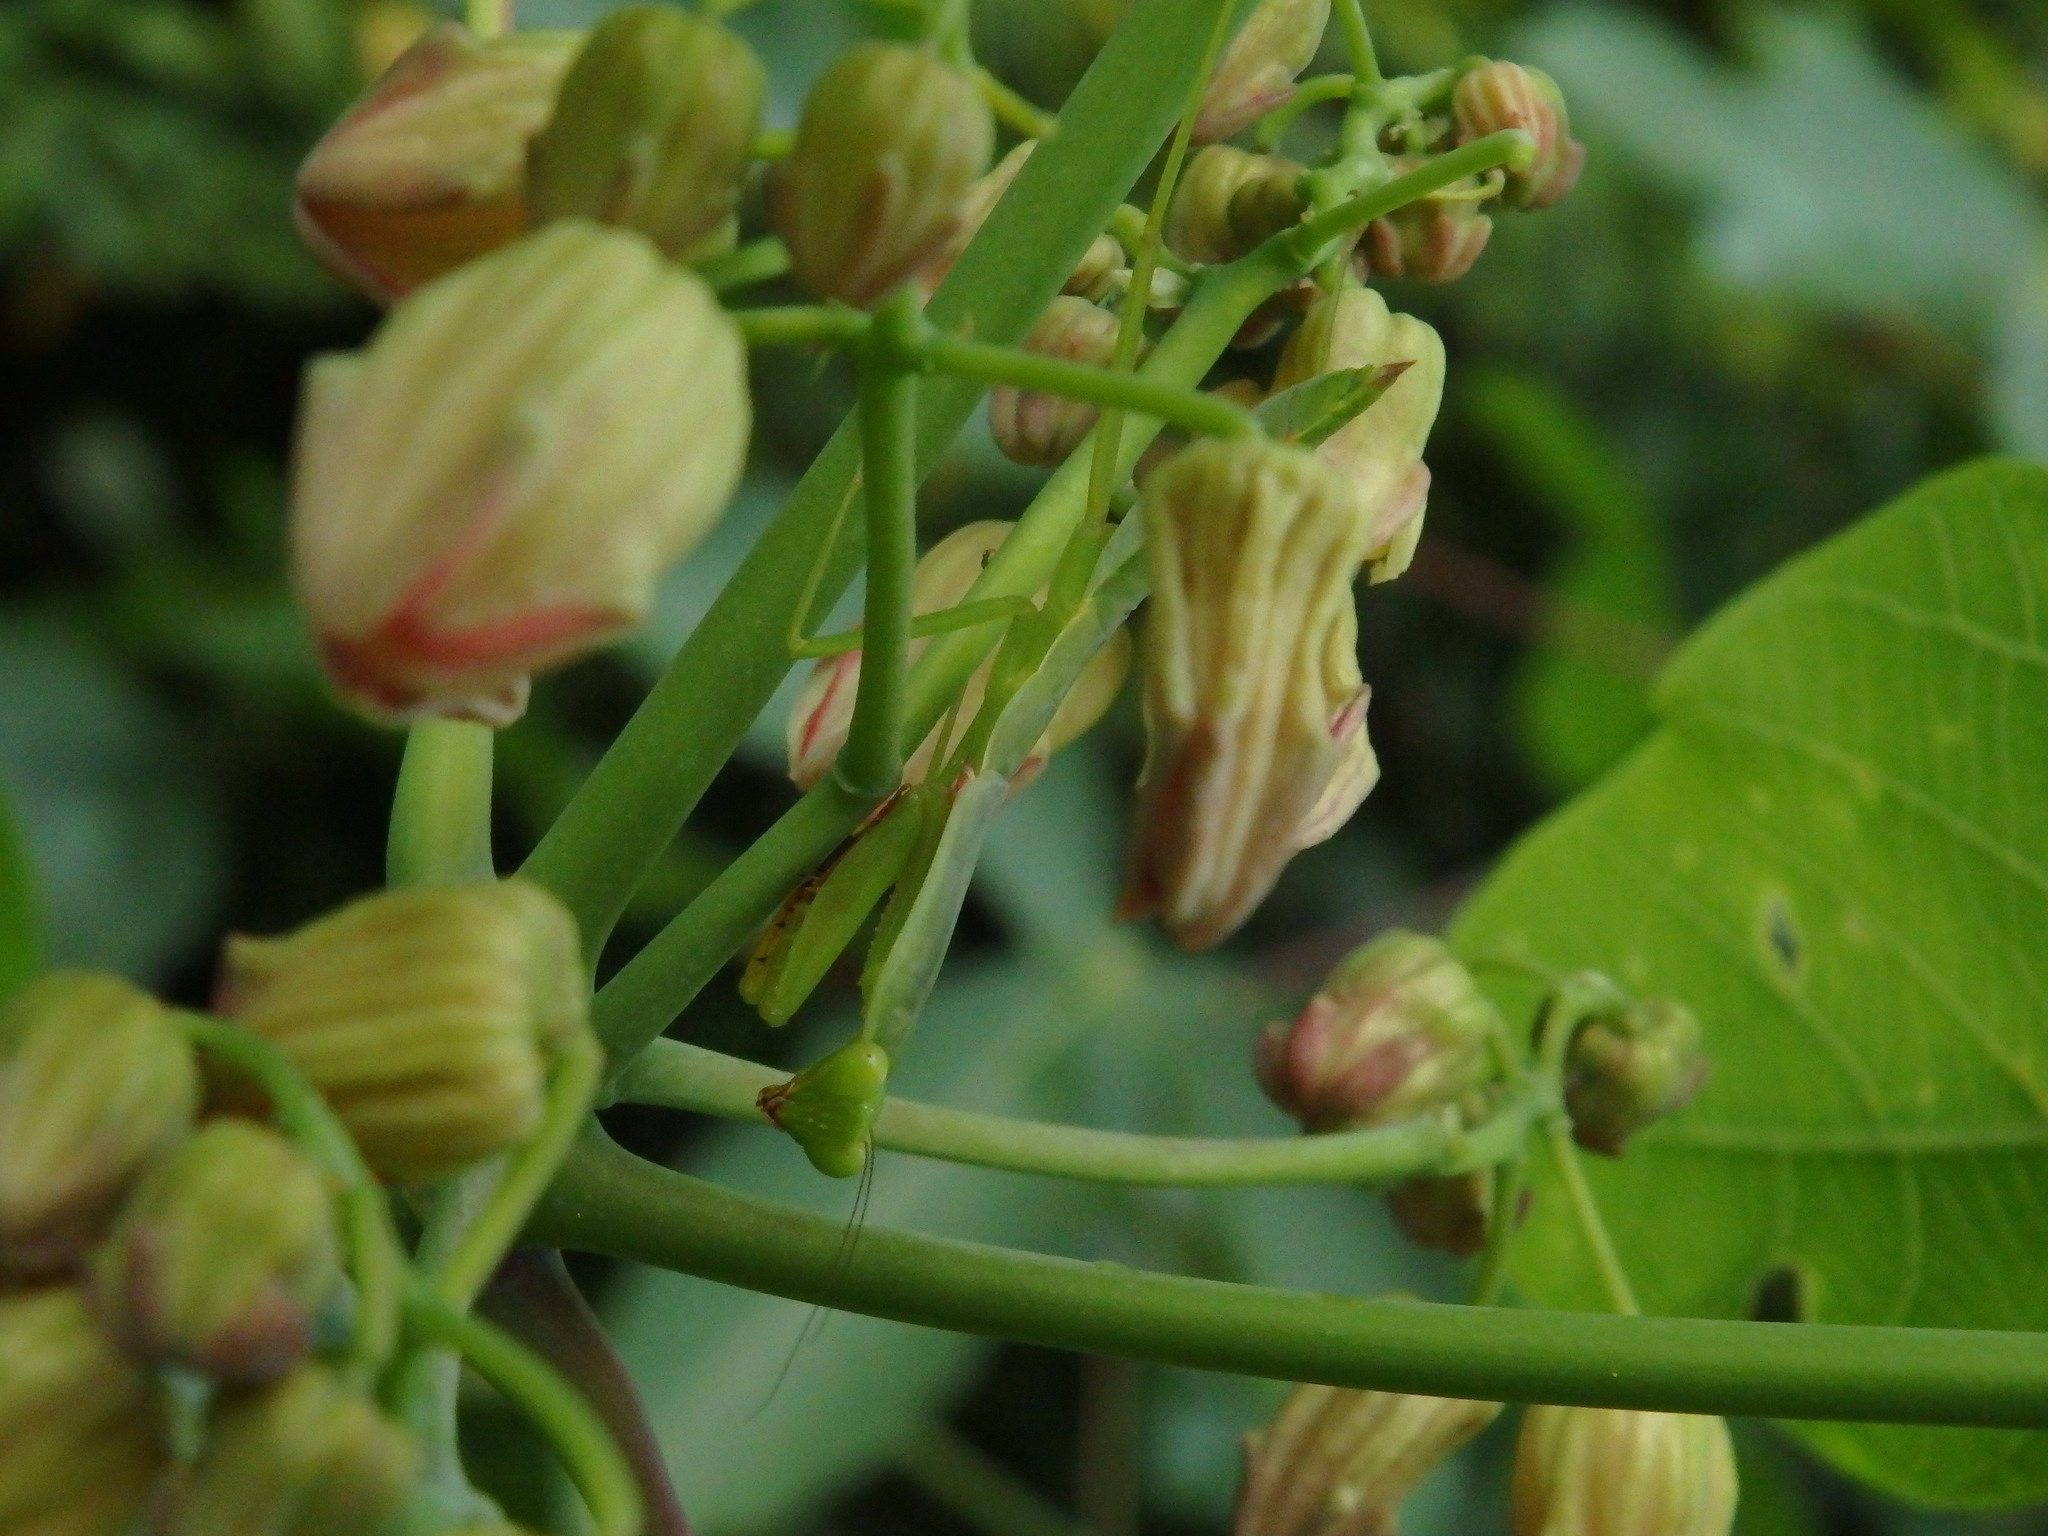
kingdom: Animalia
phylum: Arthropoda
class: Insecta
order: Mantodea
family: Mantidae
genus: Hierodula
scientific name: Hierodula venosa
